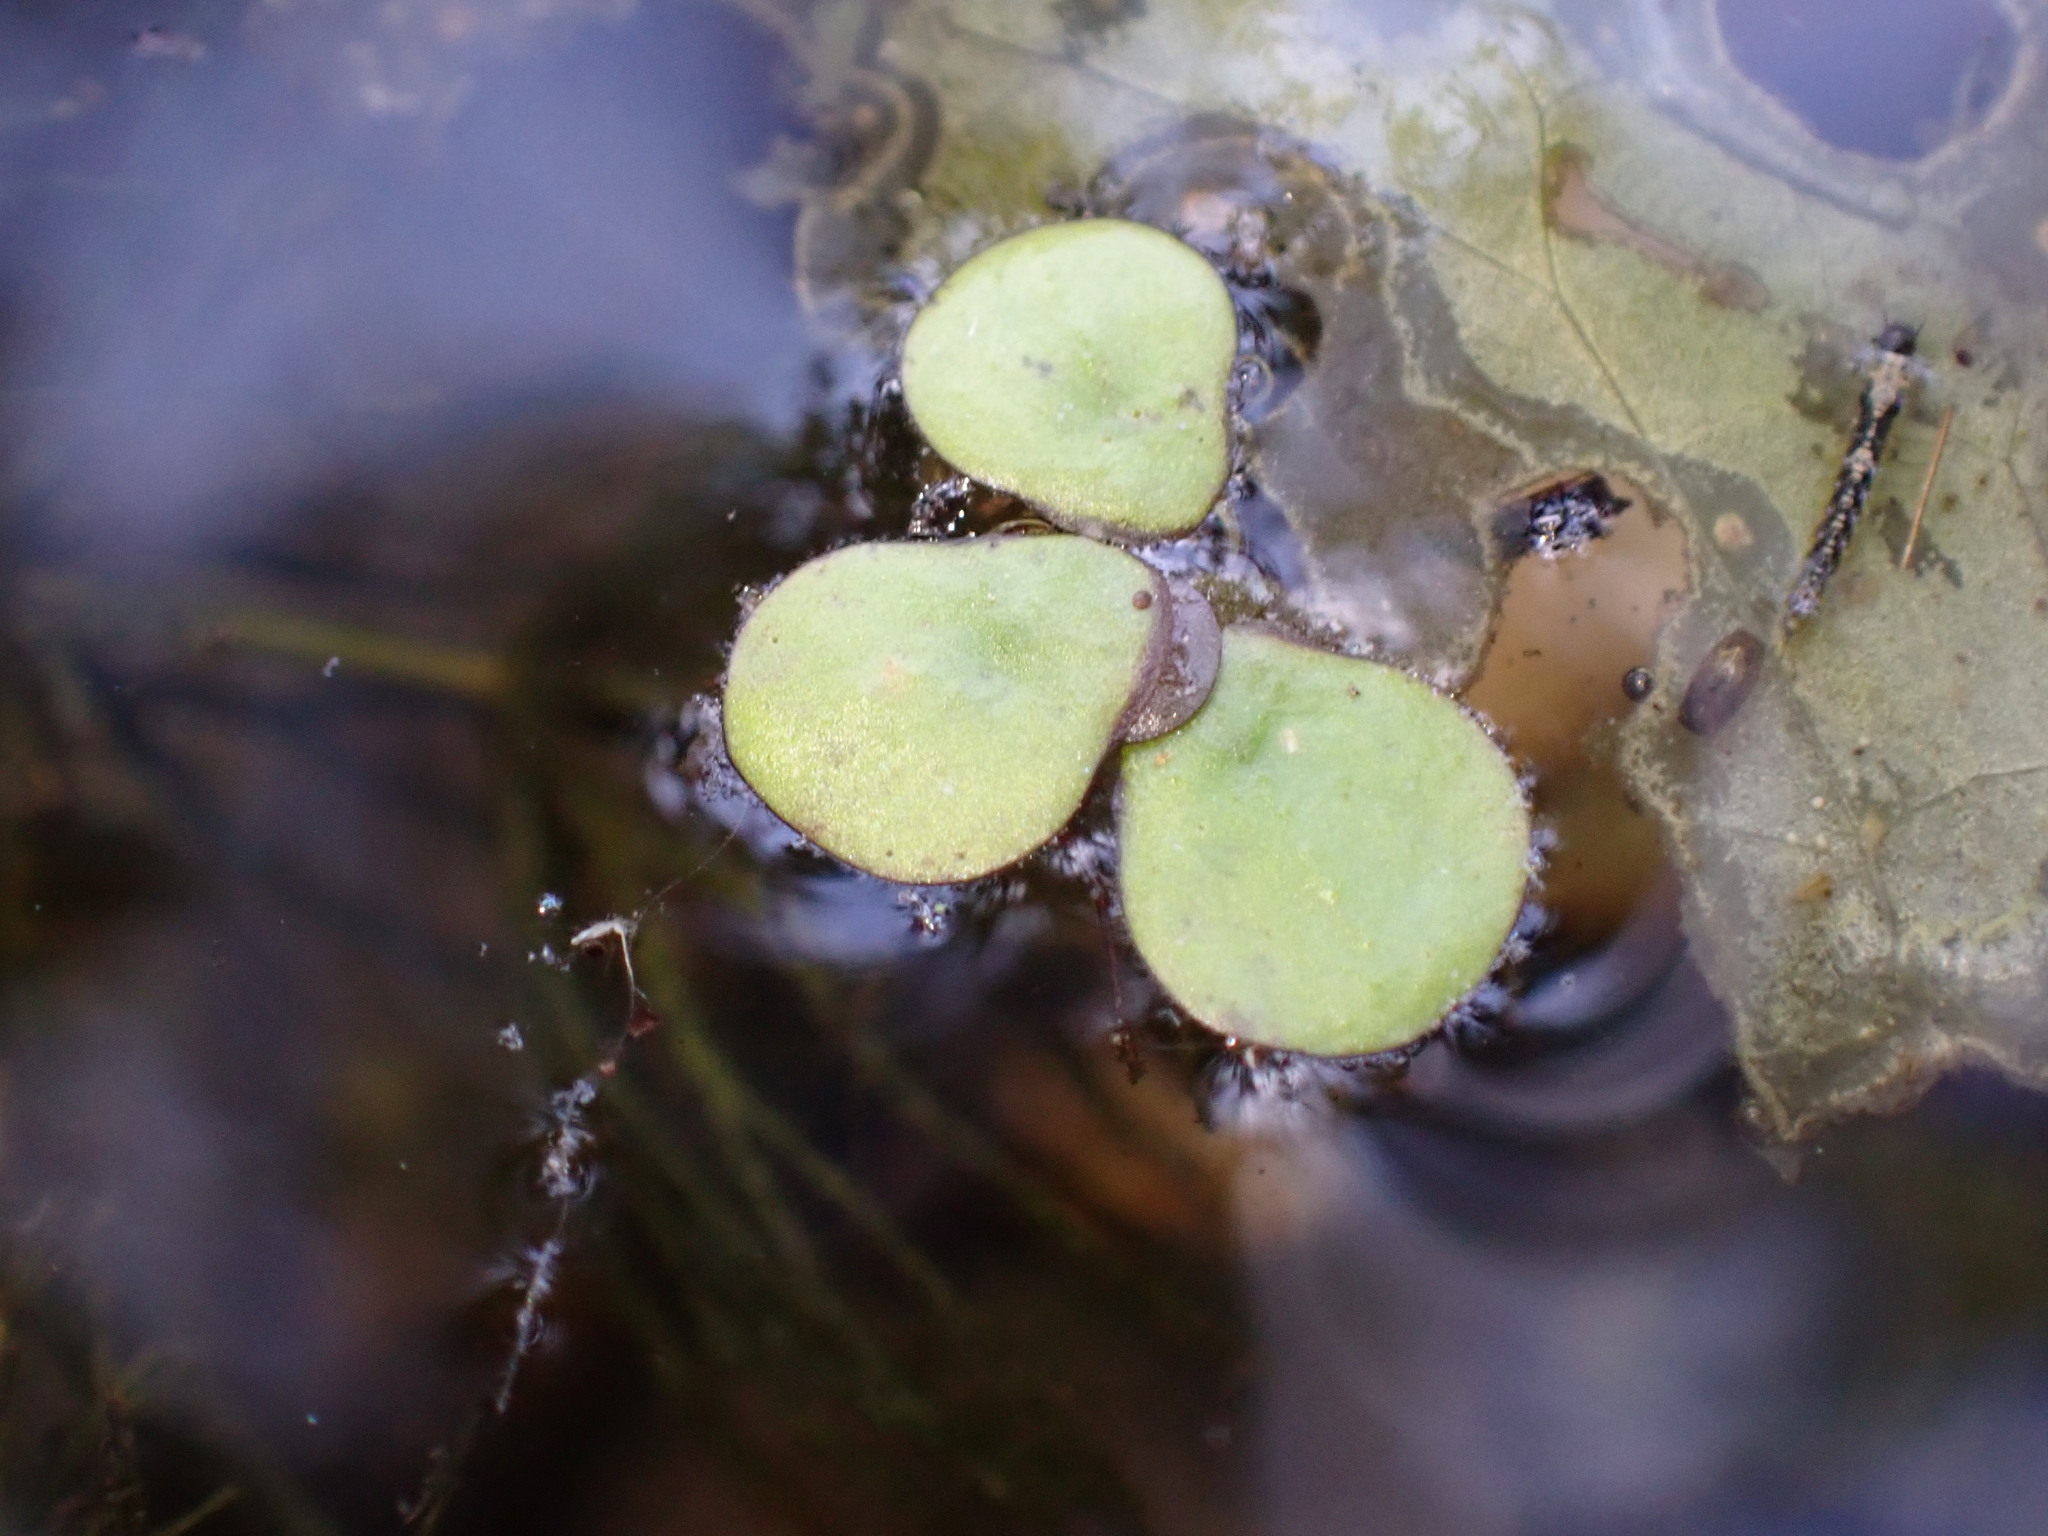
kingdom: Plantae
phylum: Tracheophyta
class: Liliopsida
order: Alismatales
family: Araceae
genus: Spirodela
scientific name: Spirodela polyrhiza
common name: Great duckweed
